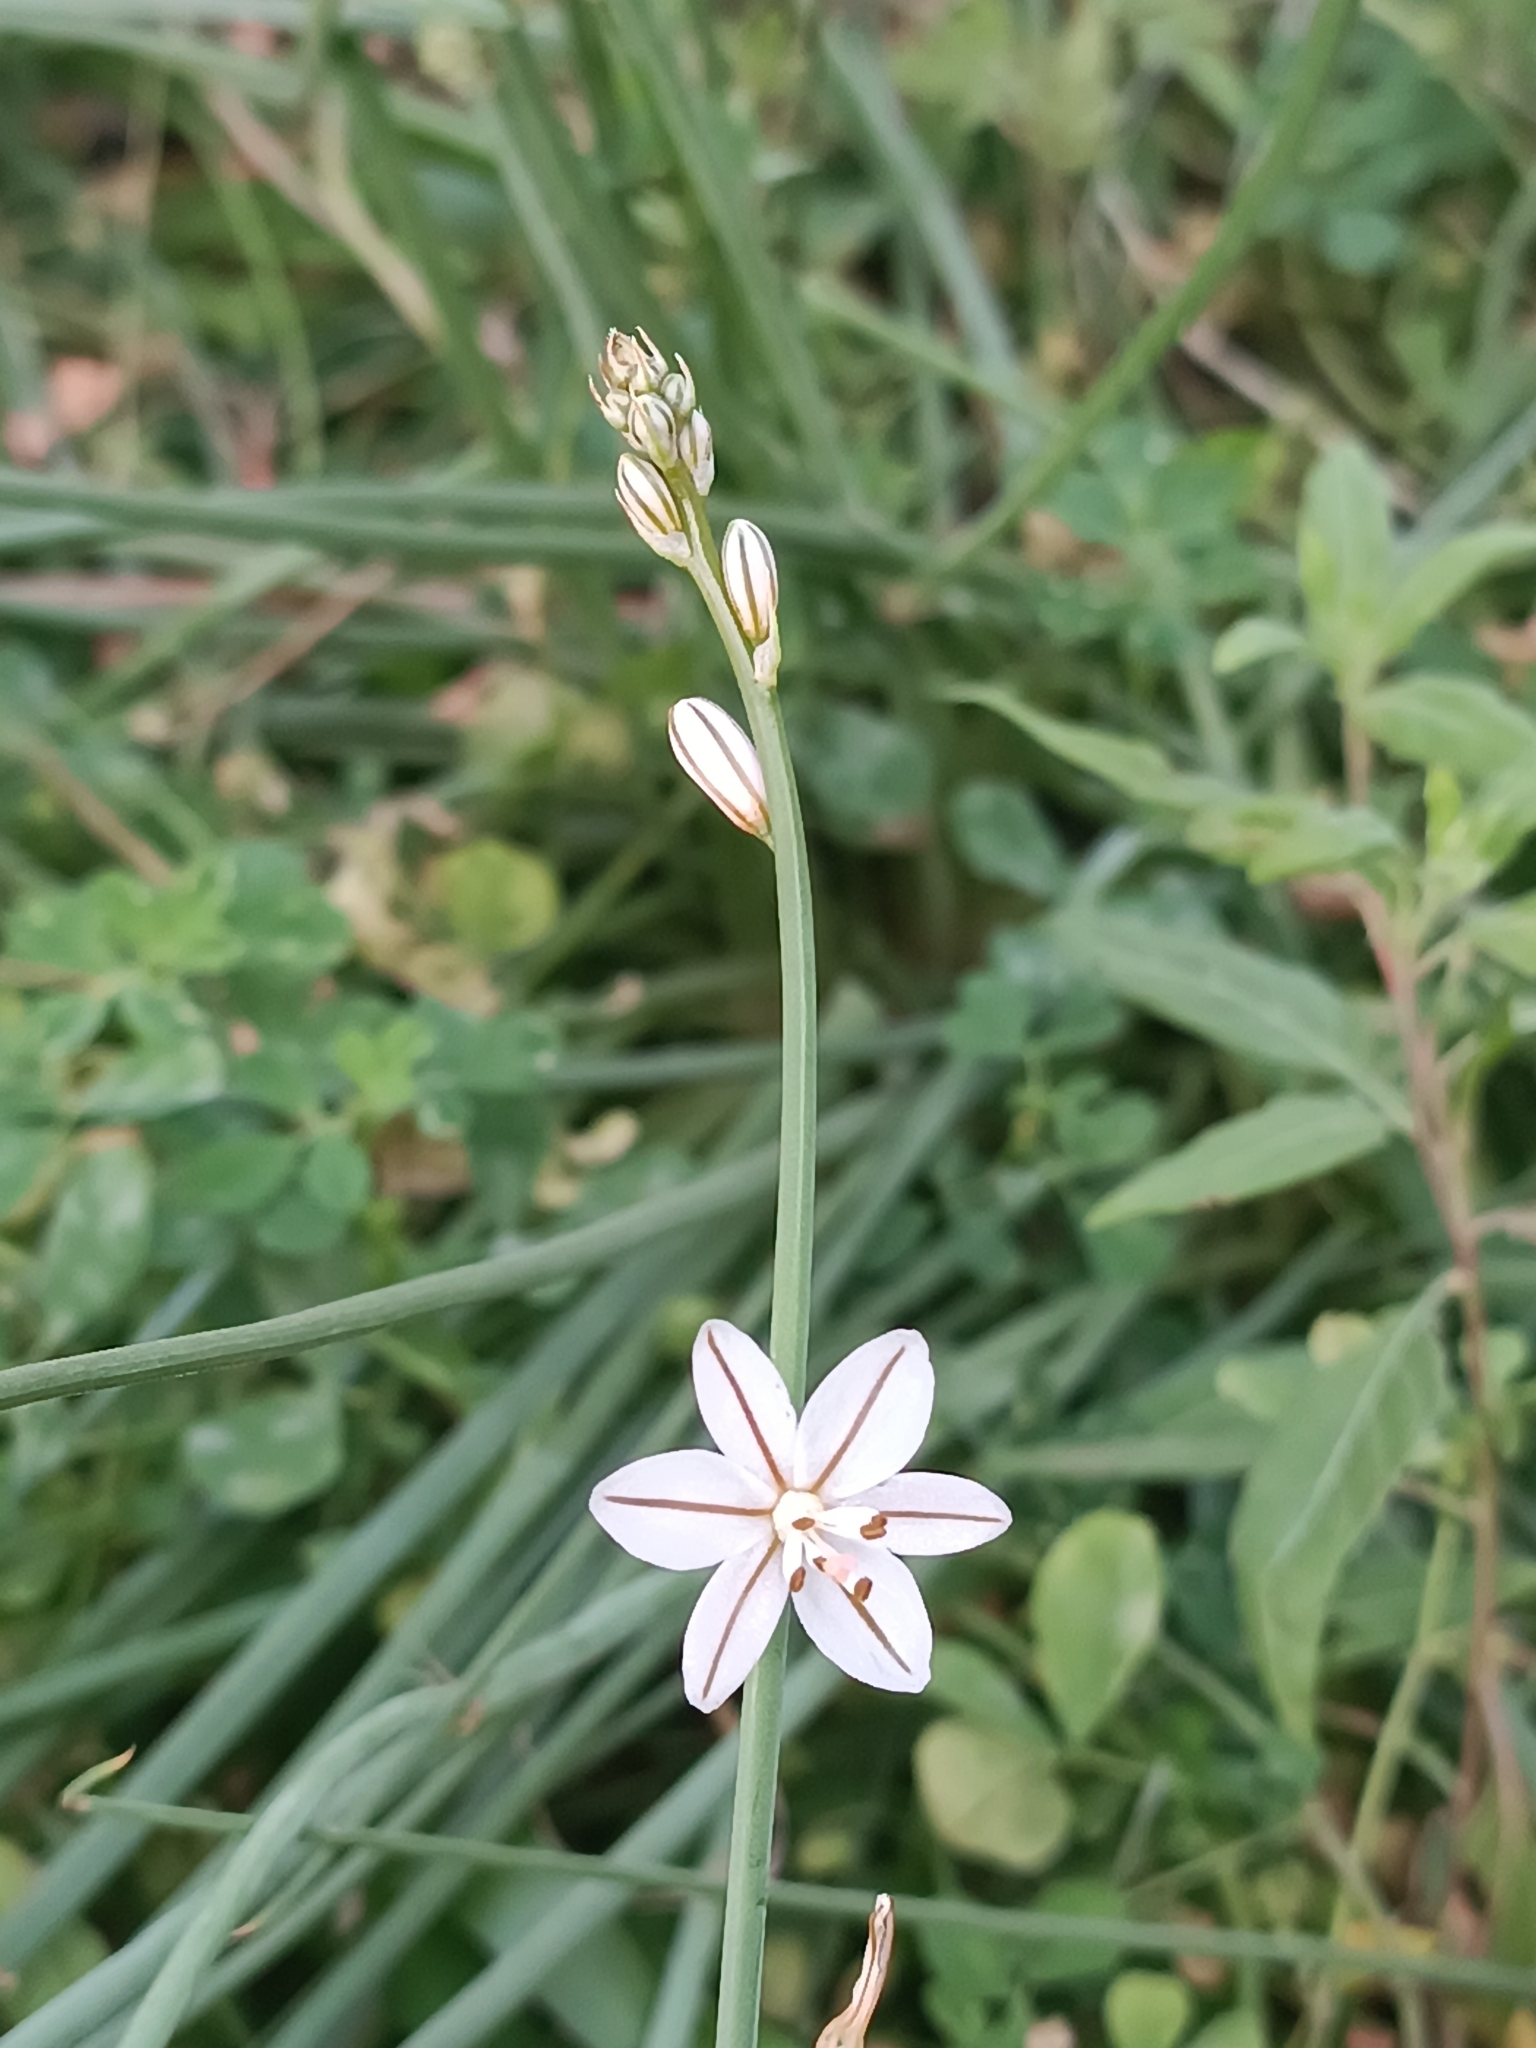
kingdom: Plantae
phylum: Tracheophyta
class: Liliopsida
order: Asparagales
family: Asphodelaceae
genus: Asphodelus
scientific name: Asphodelus fistulosus
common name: Onionweed
